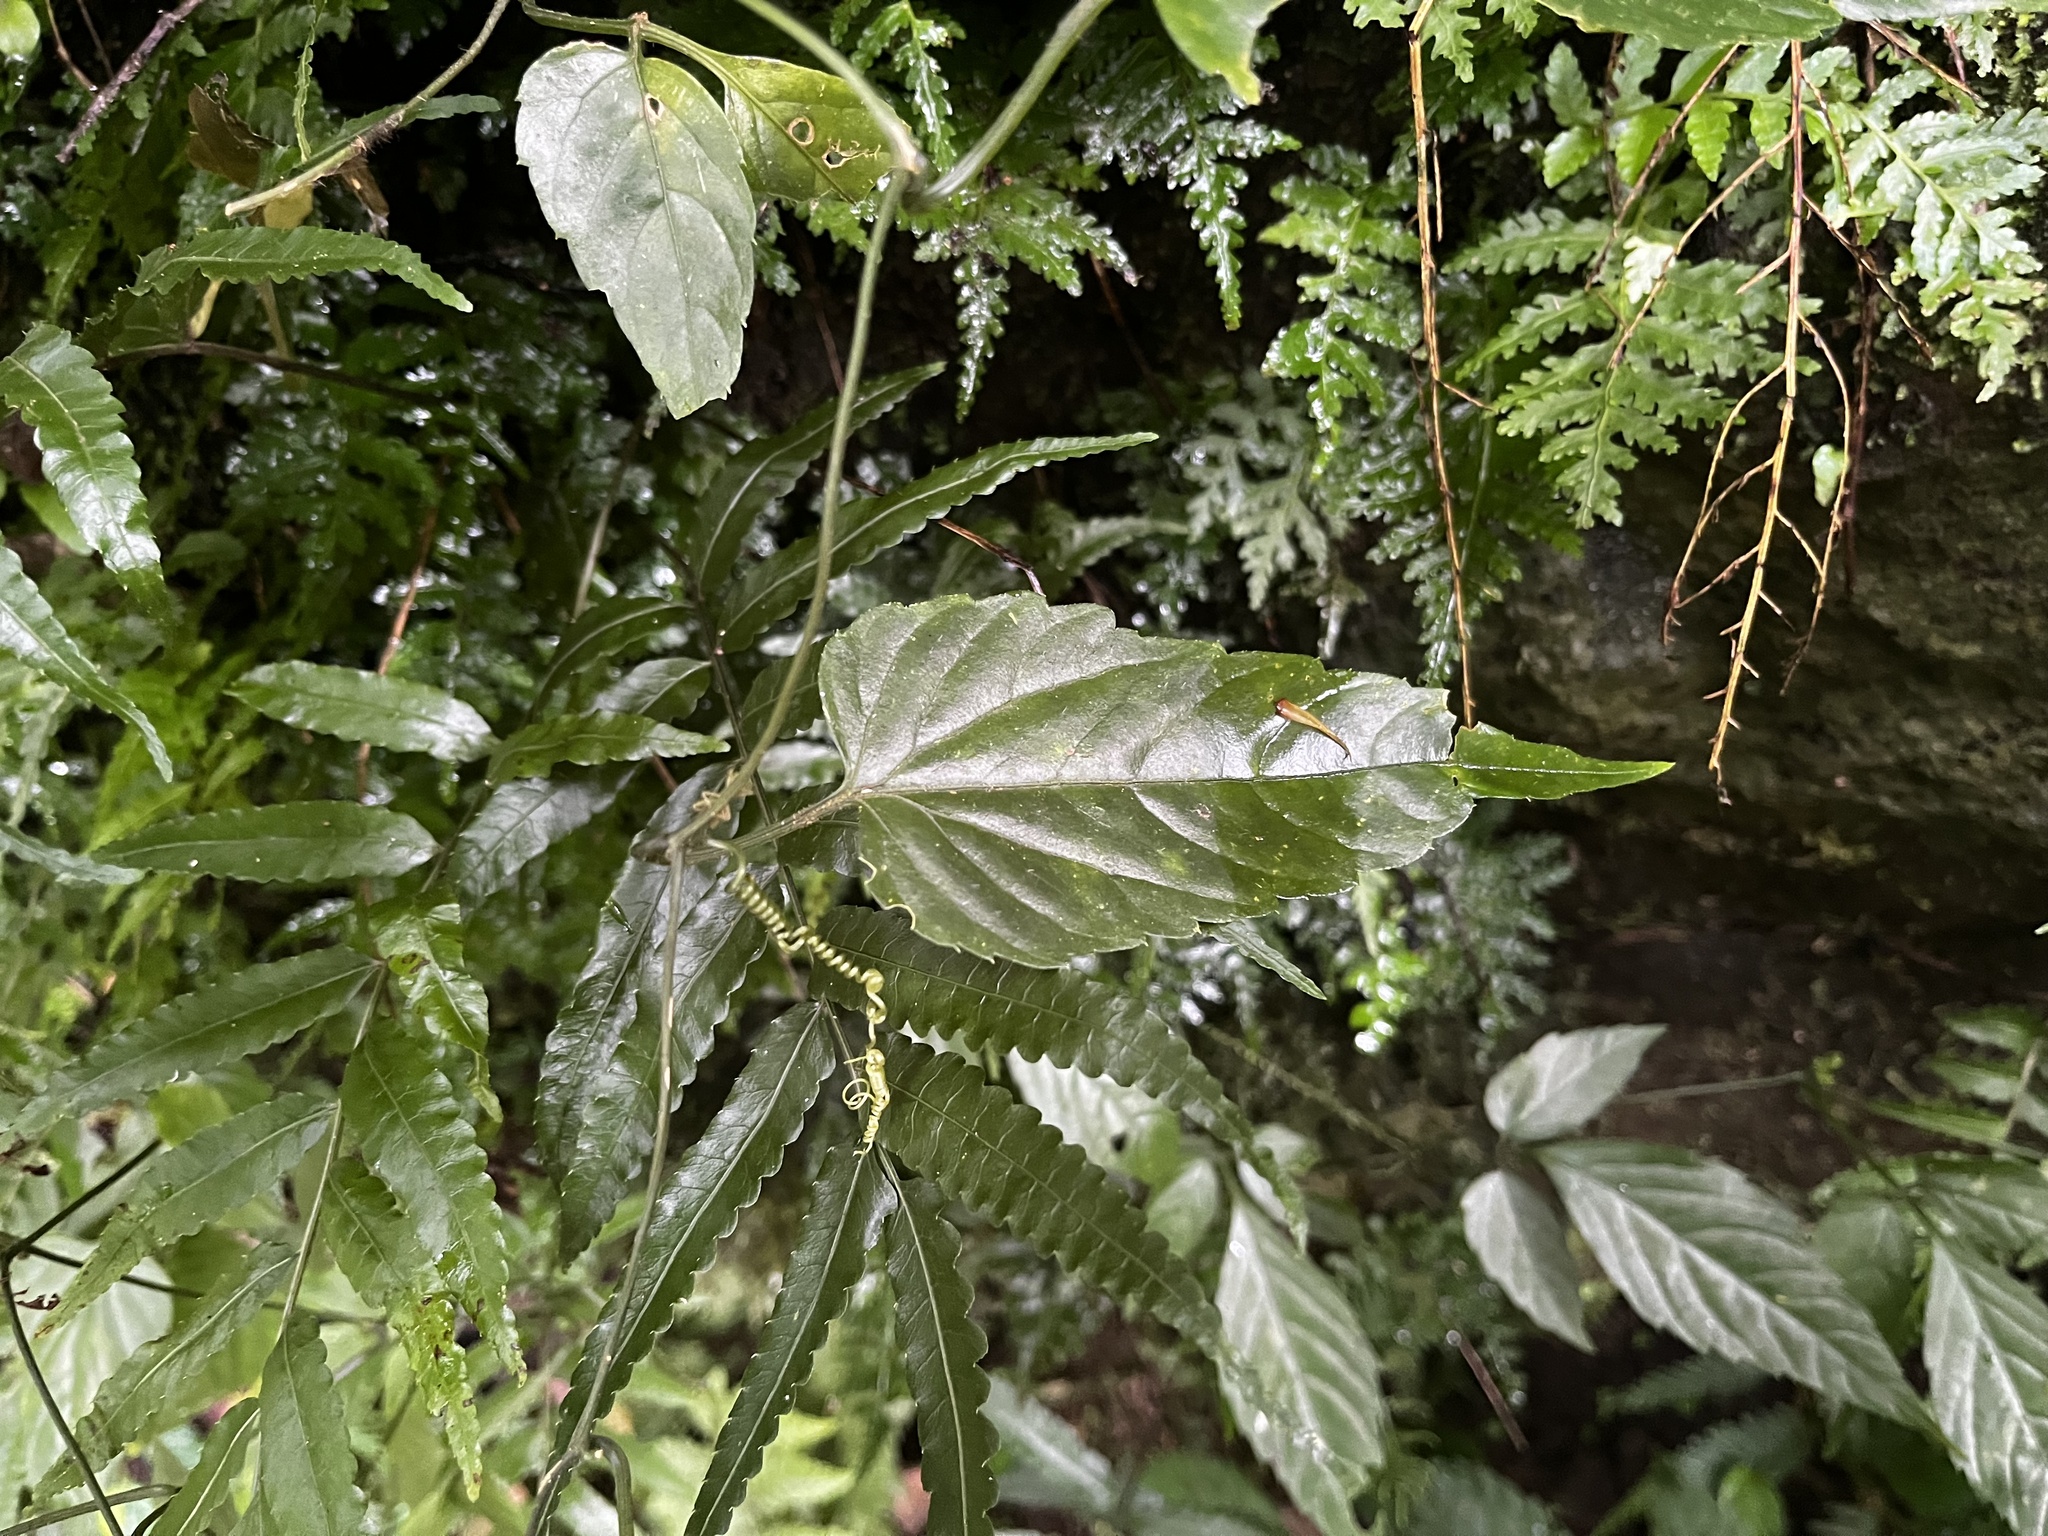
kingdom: Plantae
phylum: Tracheophyta
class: Magnoliopsida
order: Cucurbitales
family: Cucurbitaceae
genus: Gynostemma
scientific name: Gynostemma pentaphyllum
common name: Gynostemma
